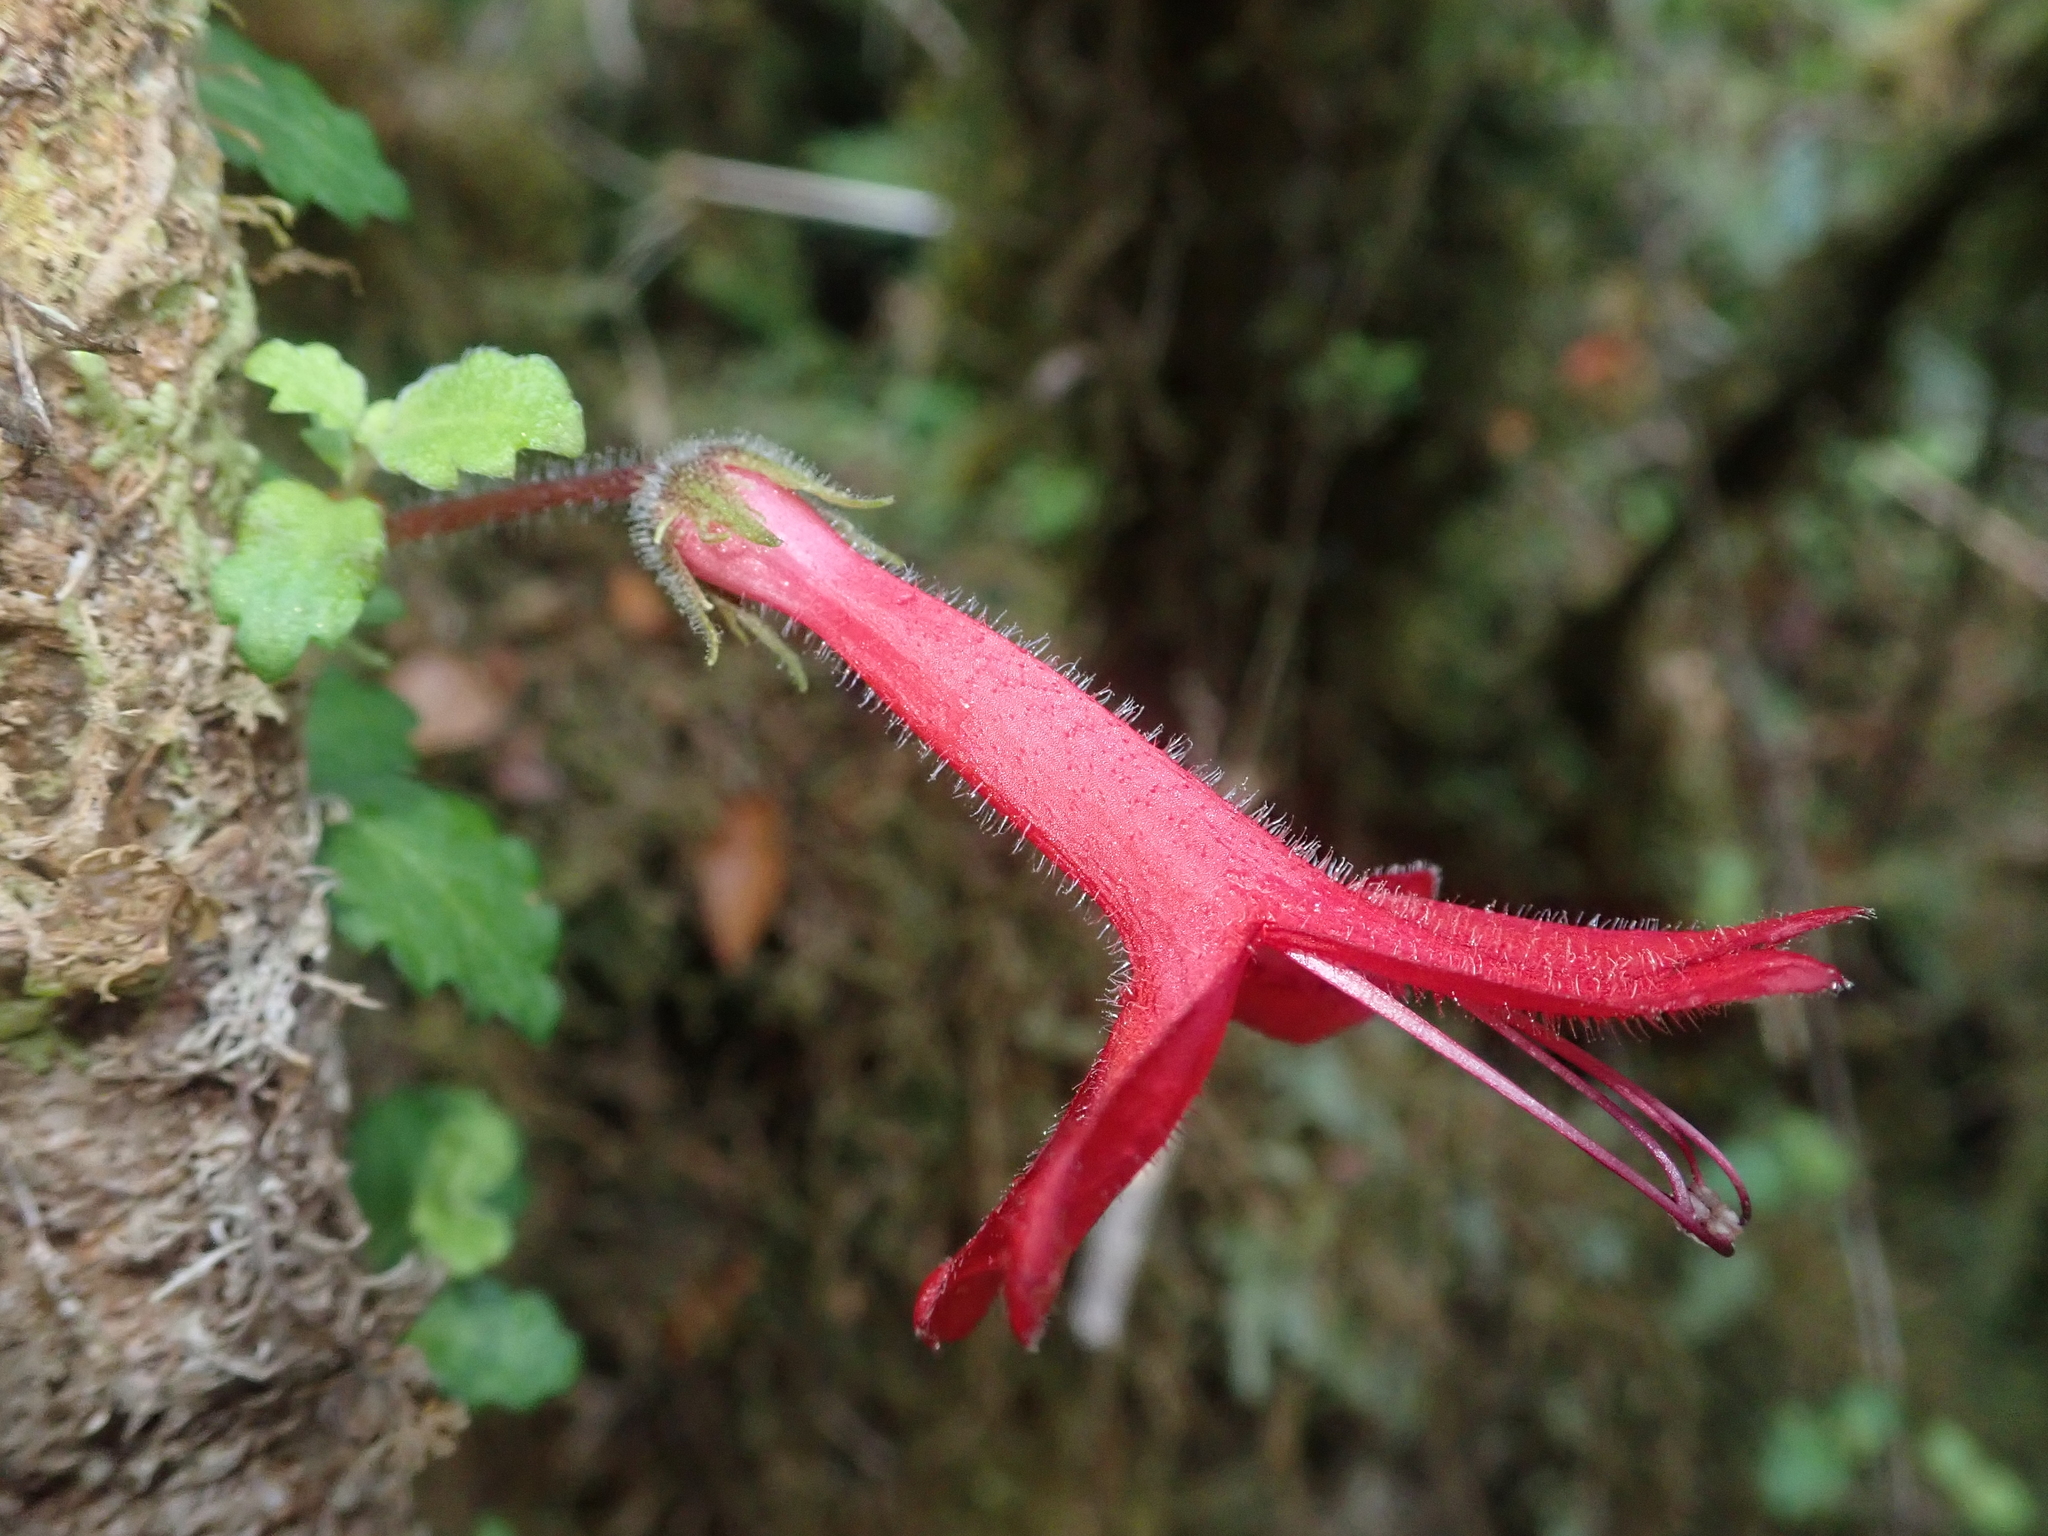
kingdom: Plantae
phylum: Tracheophyta
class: Magnoliopsida
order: Lamiales
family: Gesneriaceae
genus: Asteranthera
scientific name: Asteranthera ovata
